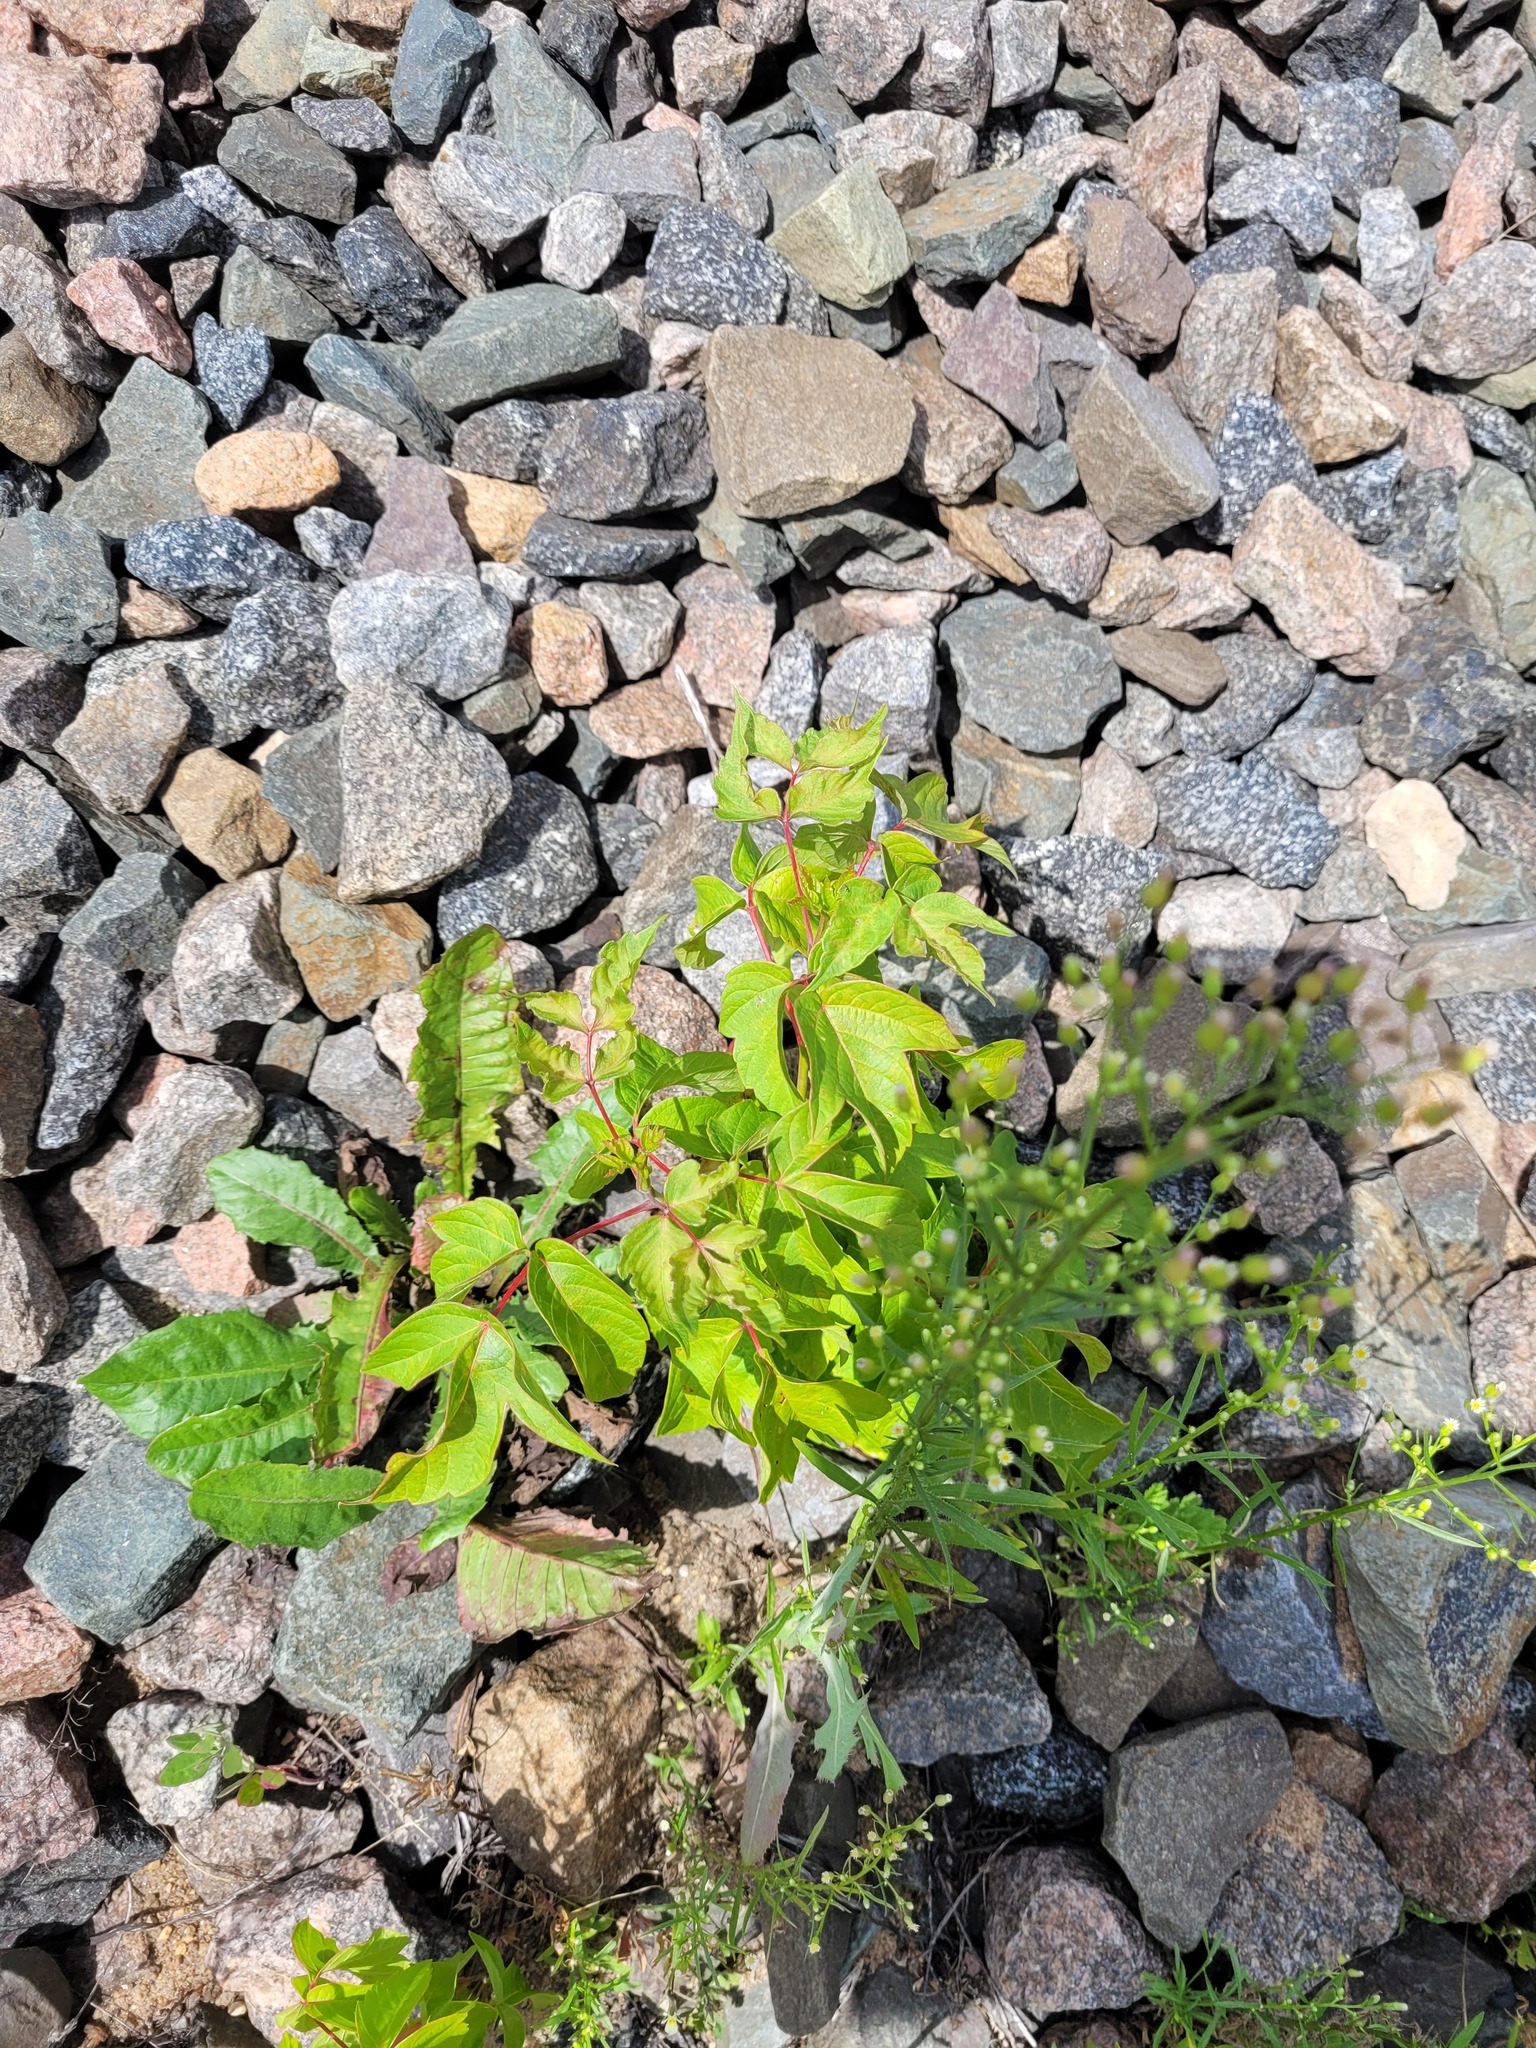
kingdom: Plantae
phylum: Tracheophyta
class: Magnoliopsida
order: Sapindales
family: Sapindaceae
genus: Acer
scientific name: Acer negundo
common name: Ashleaf maple
